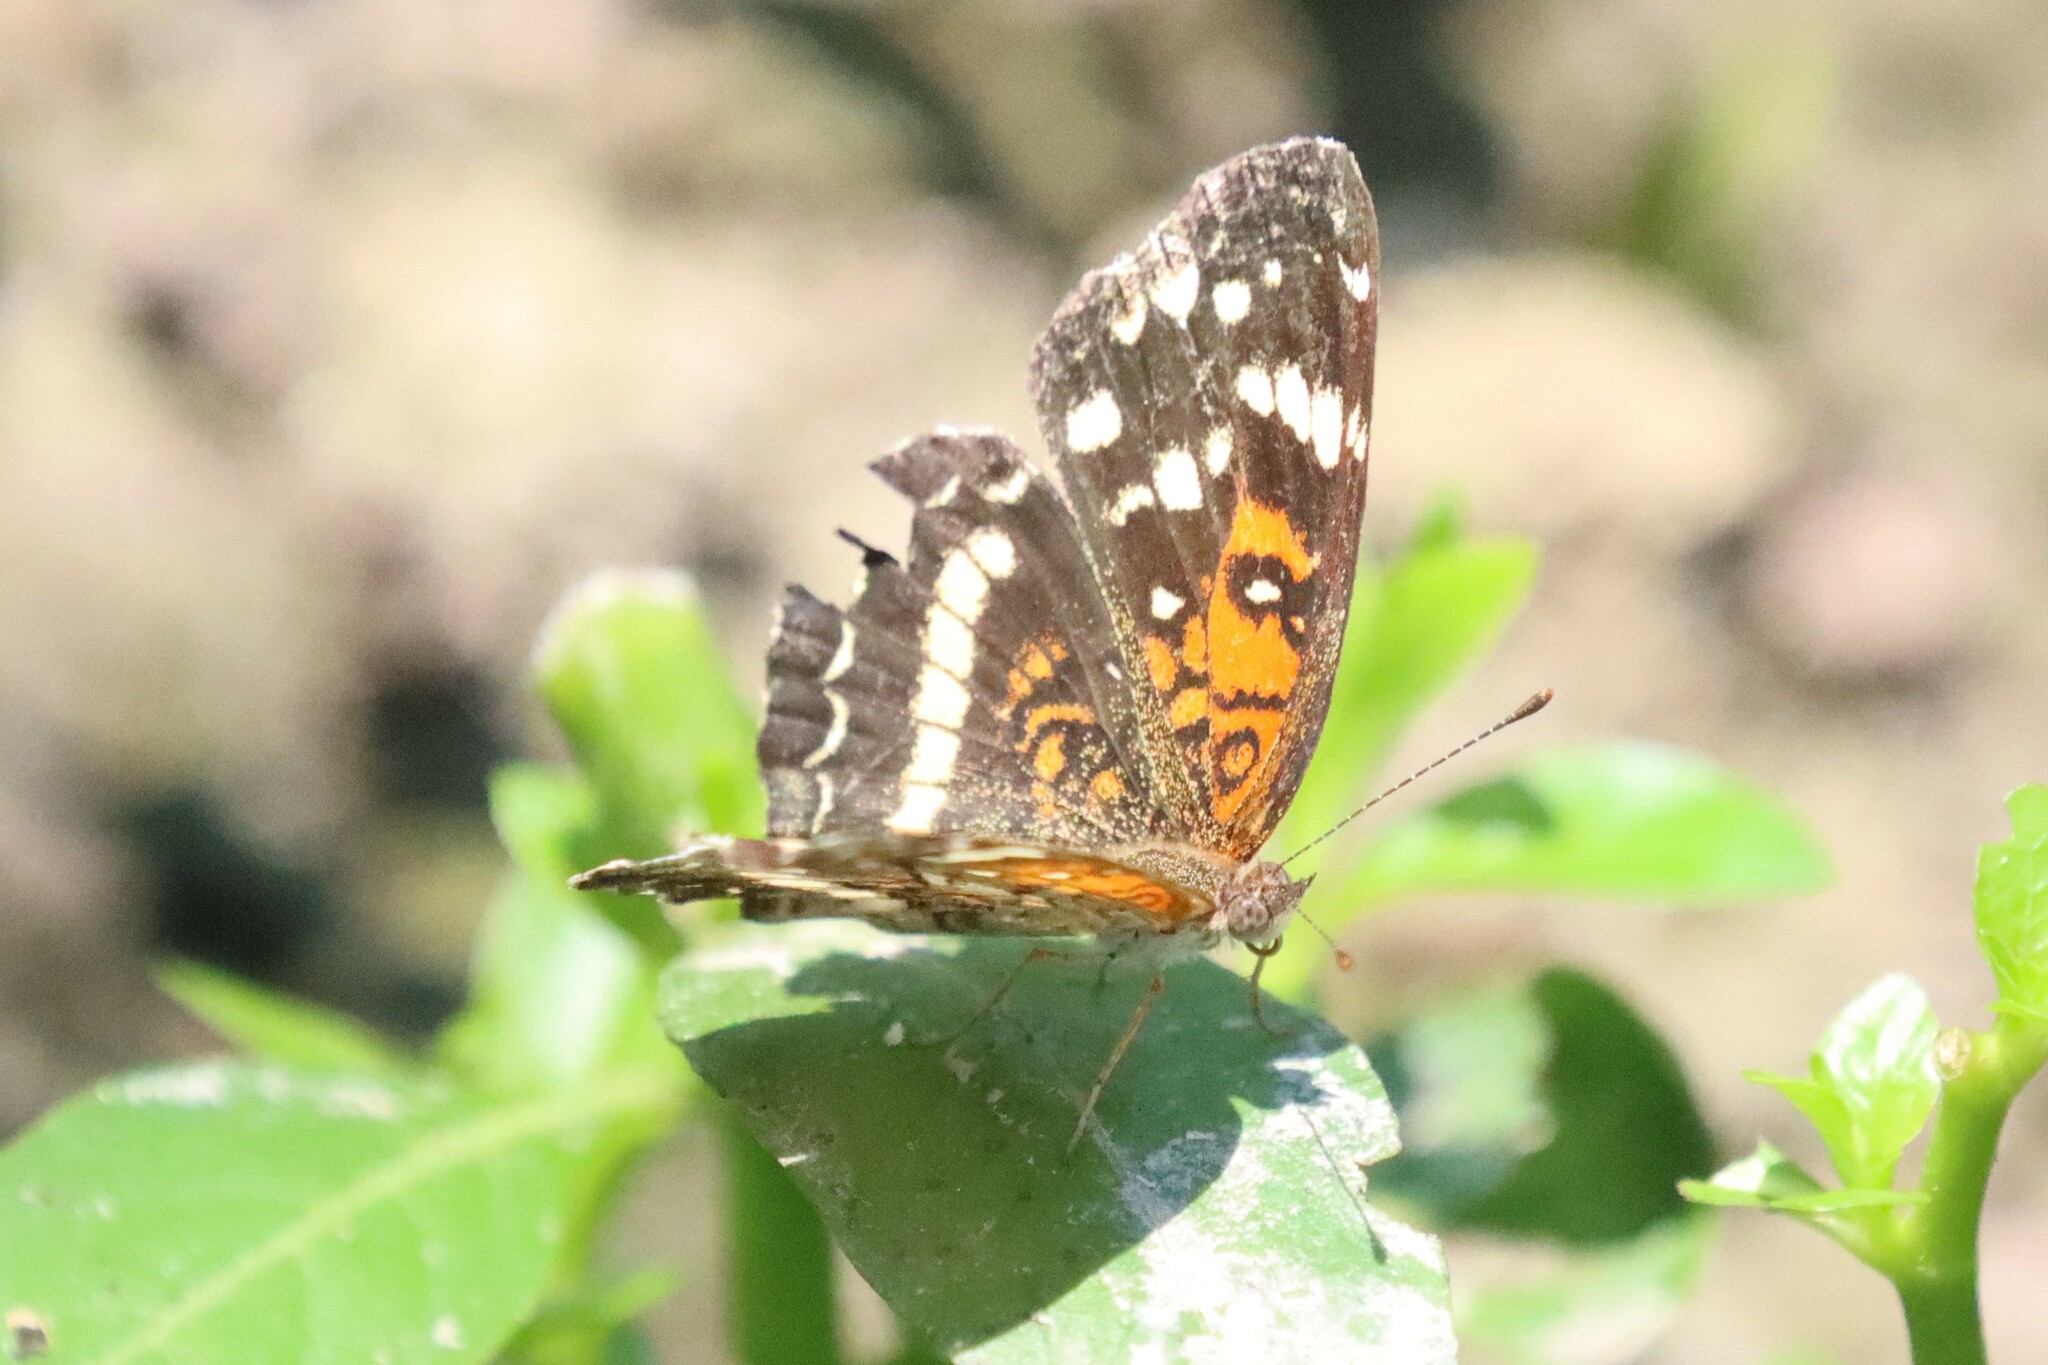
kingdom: Animalia
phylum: Arthropoda
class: Insecta
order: Lepidoptera
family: Nymphalidae
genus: Anthanassa
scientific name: Anthanassa taxana
